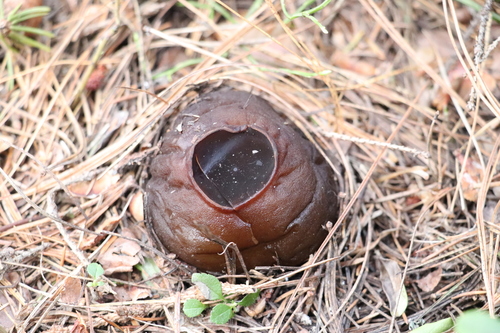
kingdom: Fungi
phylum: Ascomycota
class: Pezizomycetes
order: Pezizales
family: Sarcosomataceae
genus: Sarcosoma
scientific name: Sarcosoma globosum
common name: Charred-pancake cup
